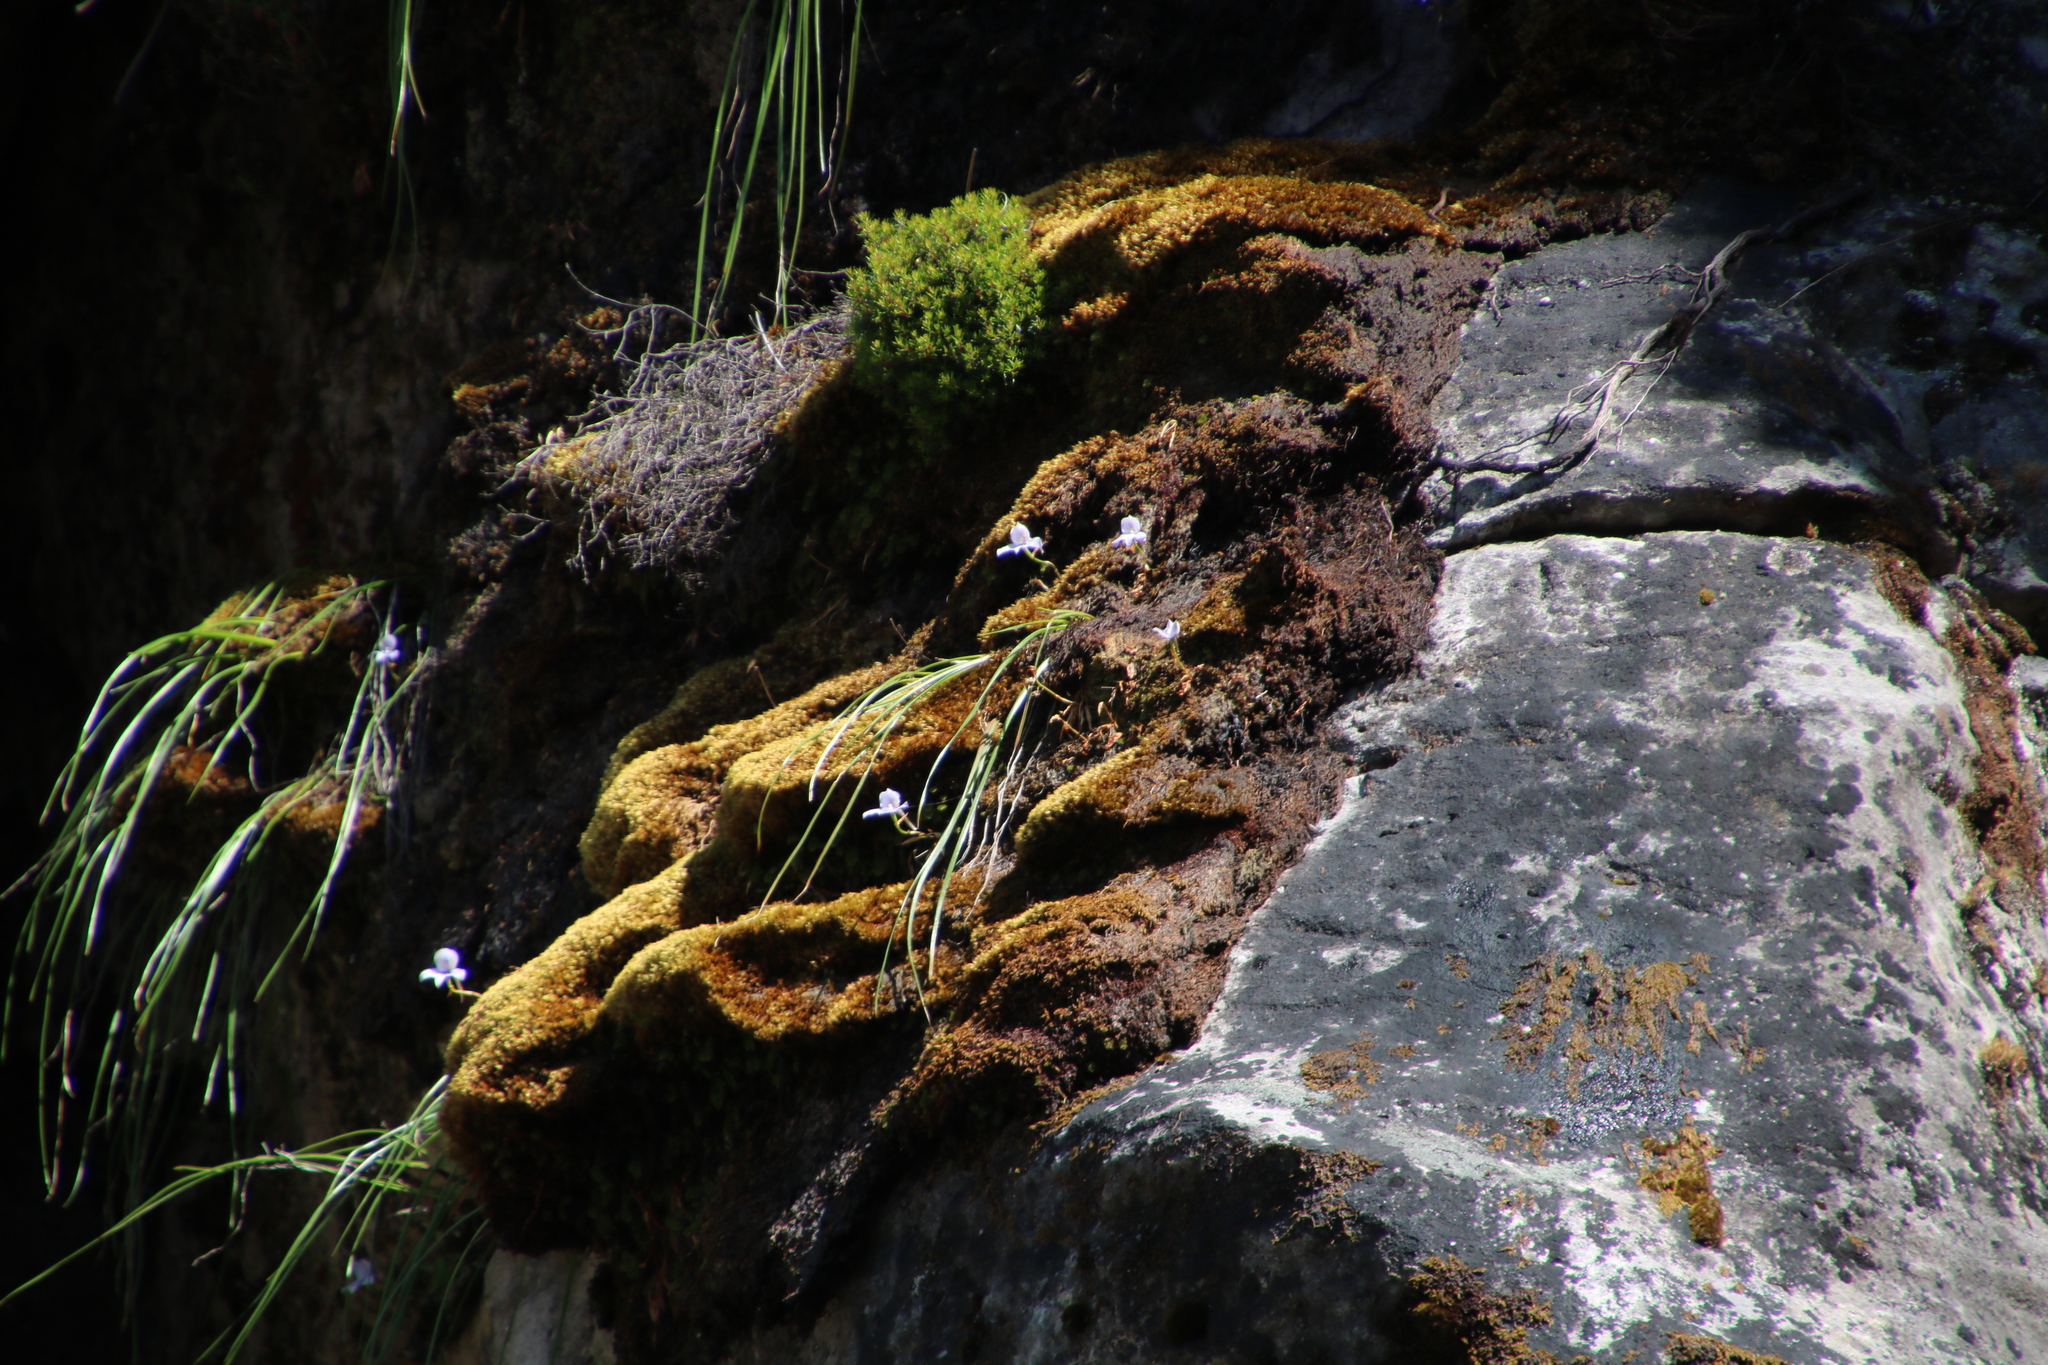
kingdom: Plantae
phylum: Tracheophyta
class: Liliopsida
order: Asparagales
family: Orchidaceae
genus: Disa
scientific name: Disa longicornu
